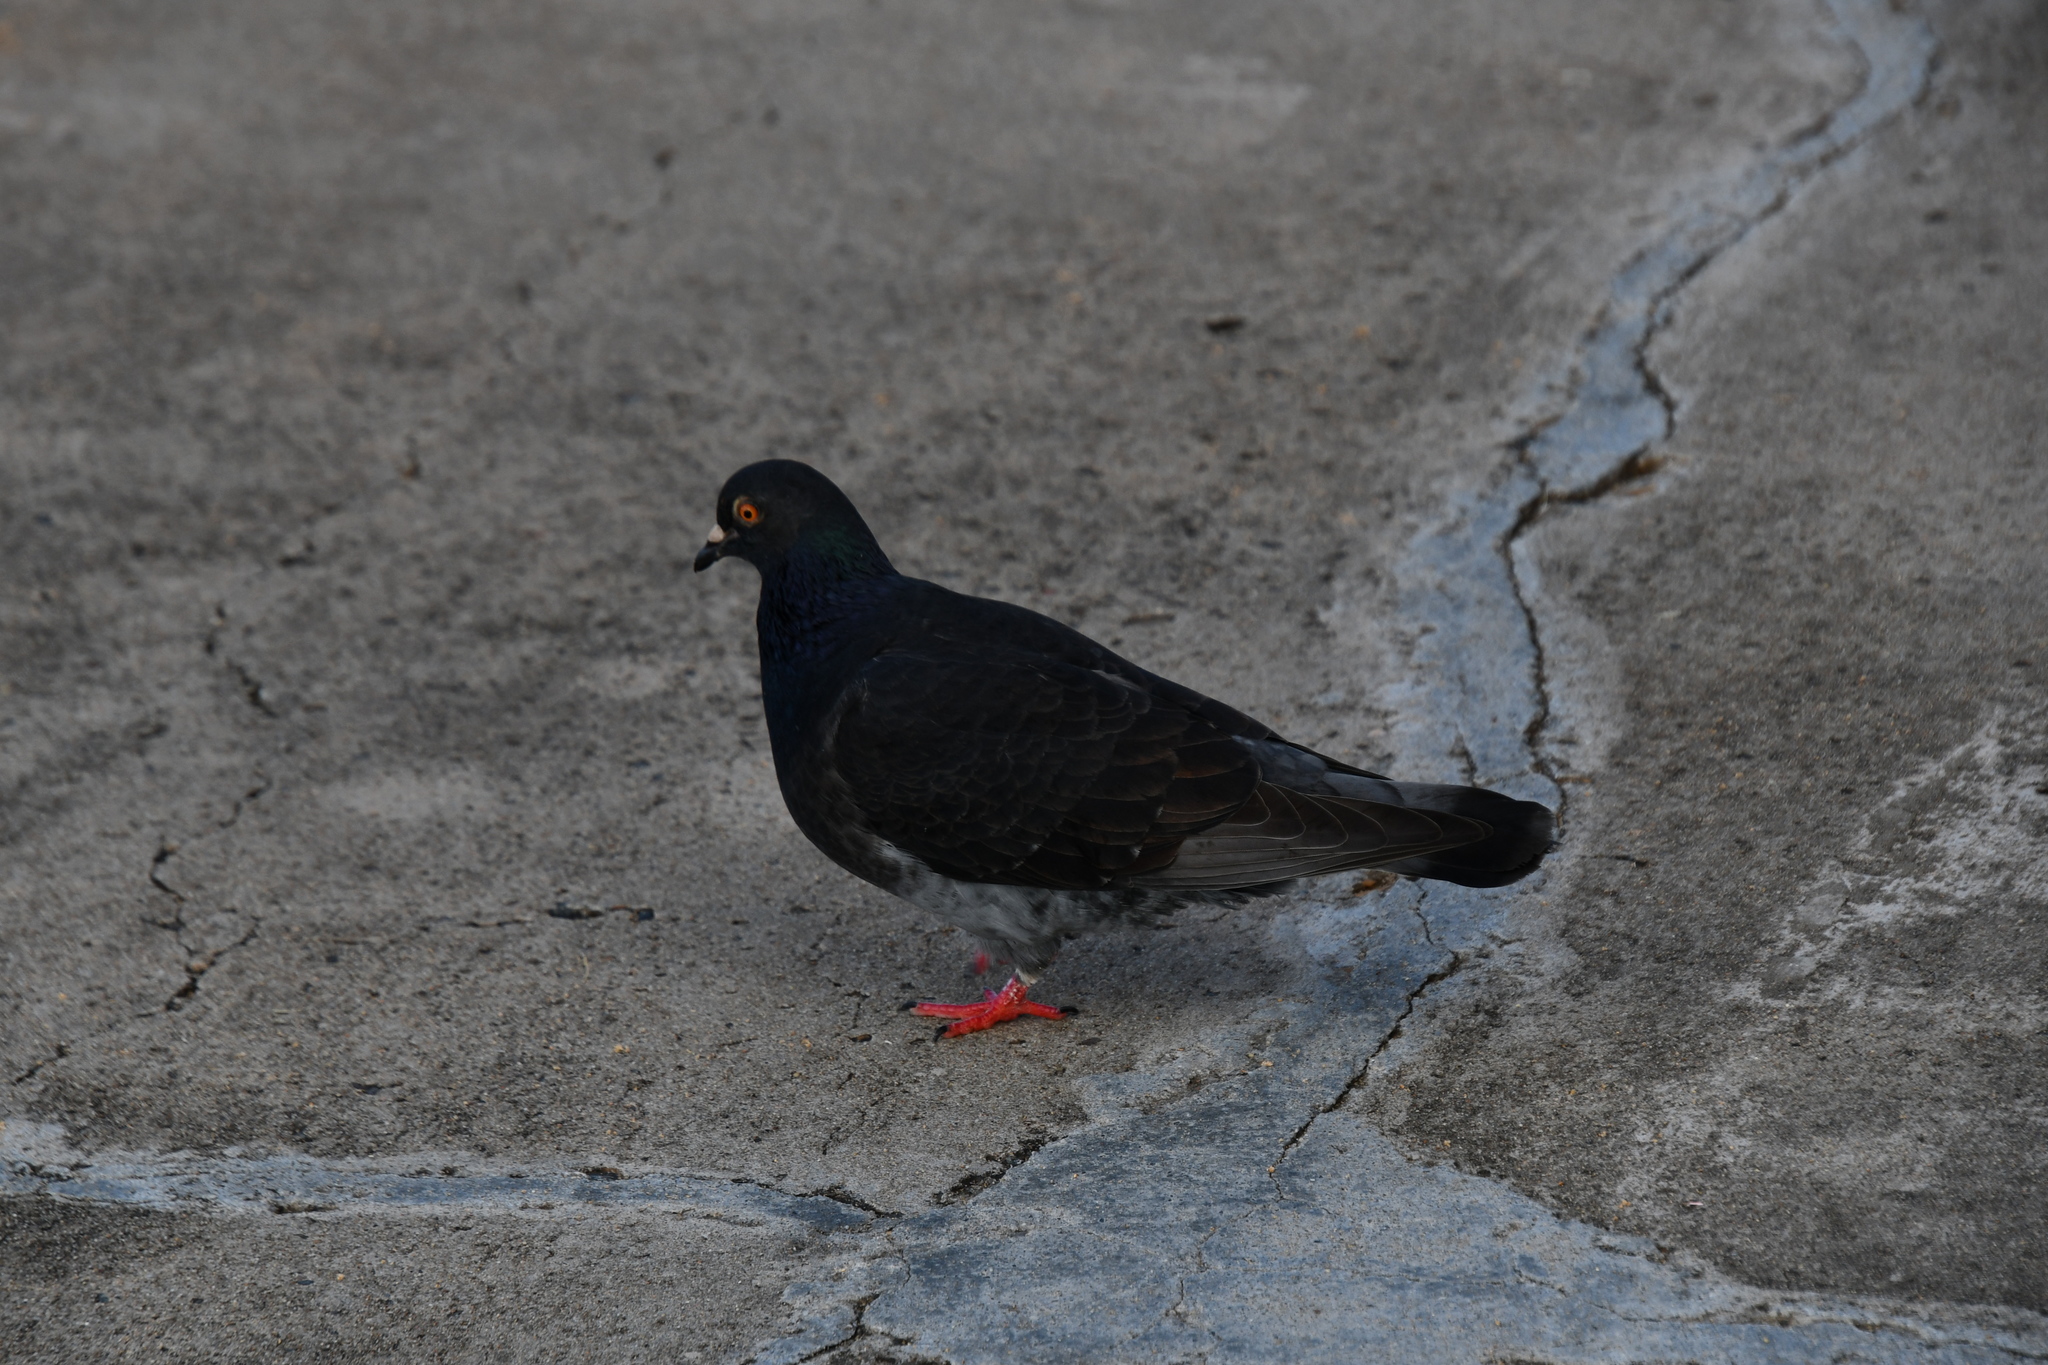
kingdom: Animalia
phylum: Chordata
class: Aves
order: Columbiformes
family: Columbidae
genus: Columba
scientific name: Columba livia
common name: Rock pigeon
